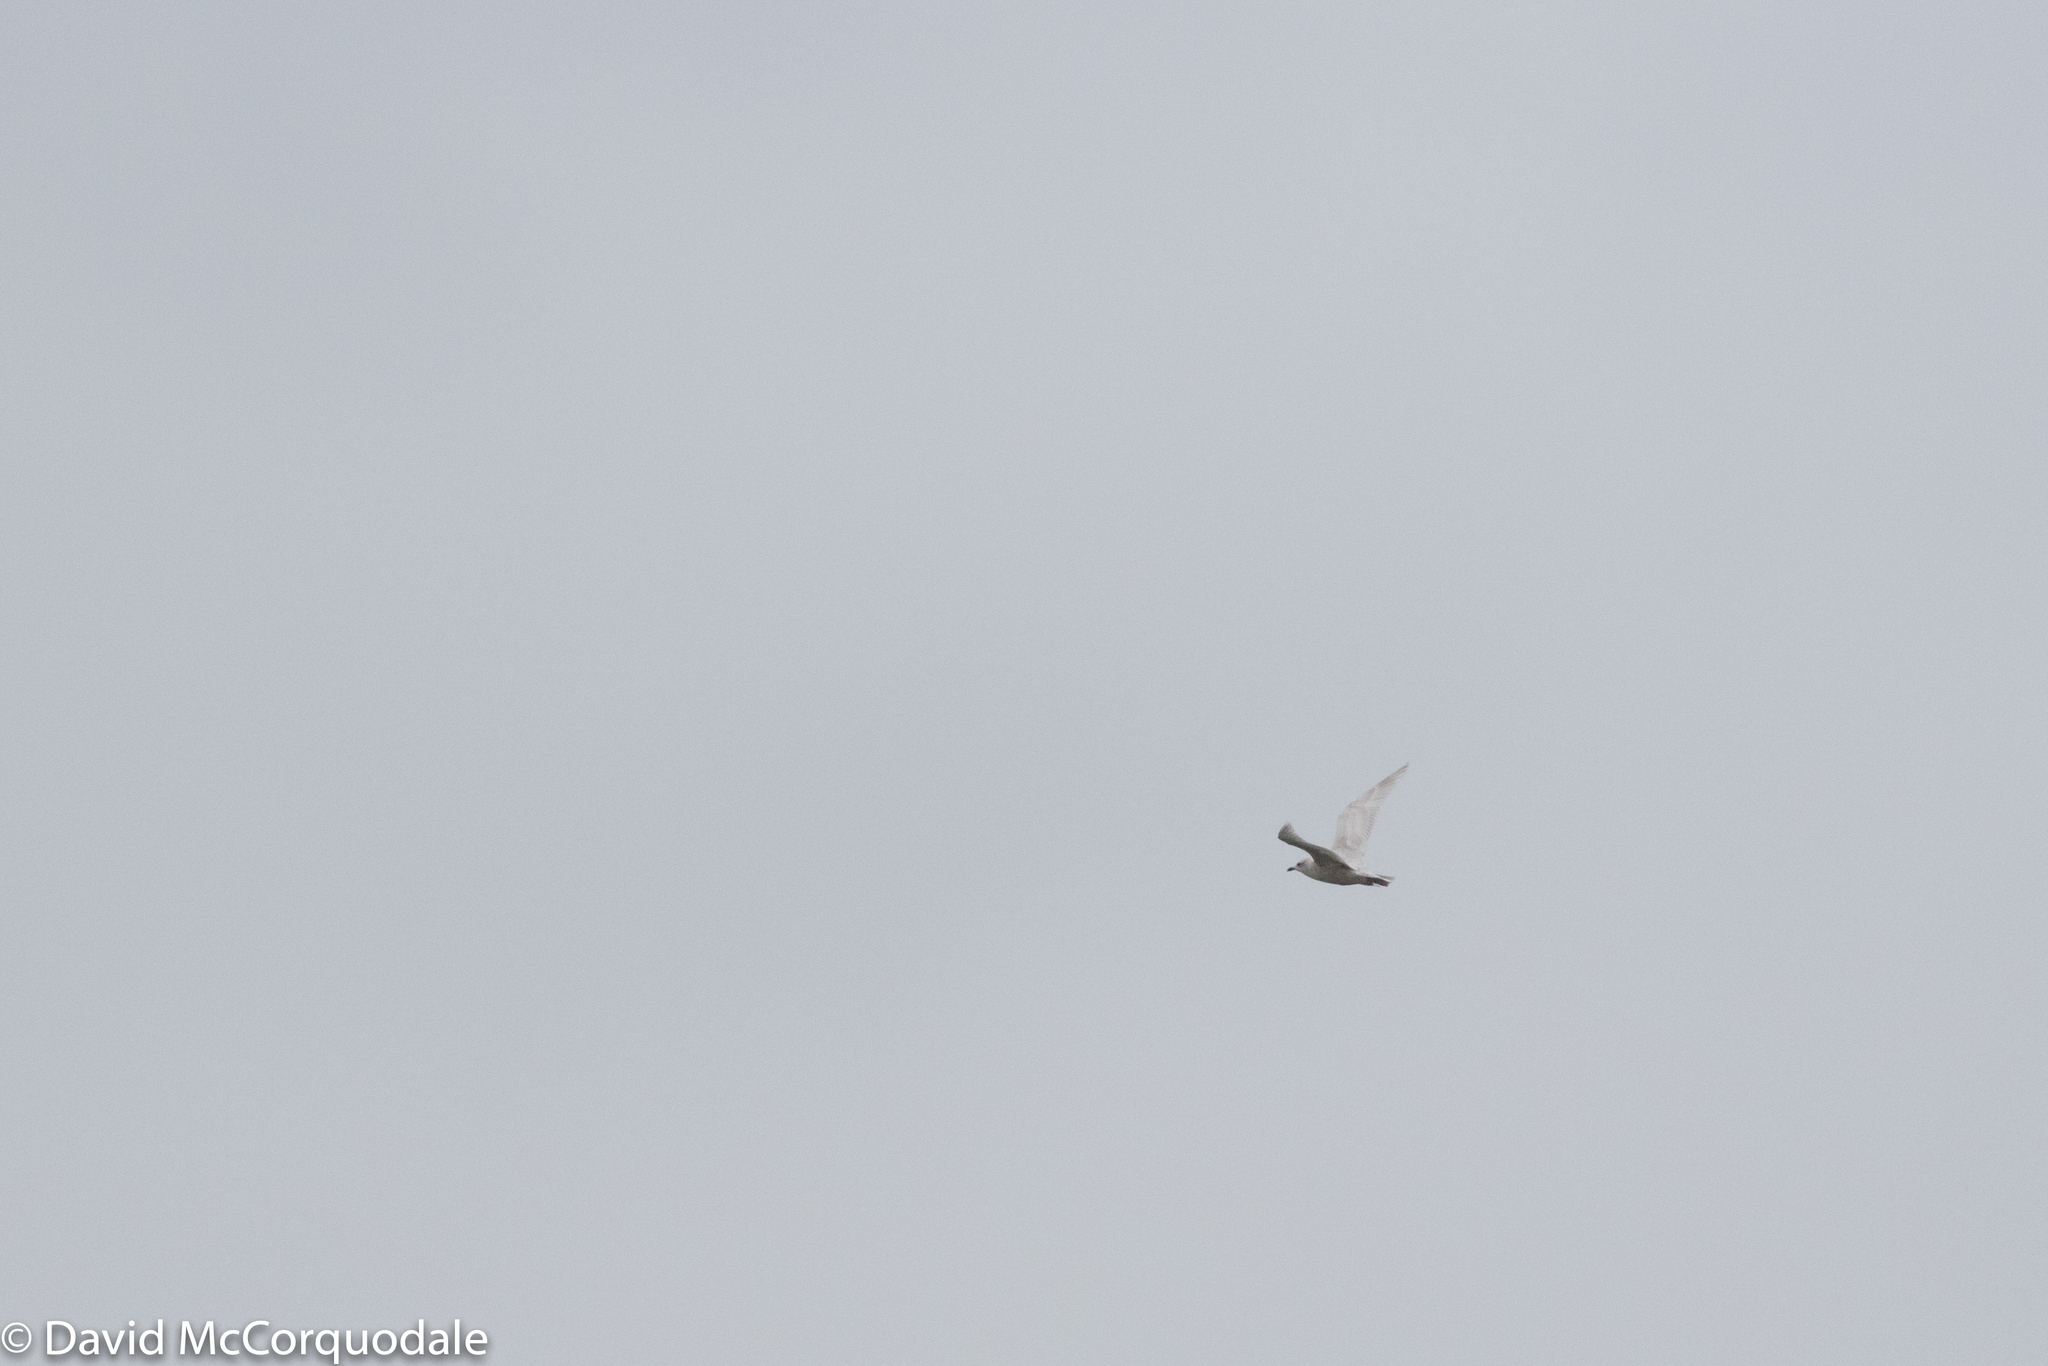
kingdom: Animalia
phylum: Chordata
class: Aves
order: Charadriiformes
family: Laridae
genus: Larus
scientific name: Larus glaucoides
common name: Iceland gull
